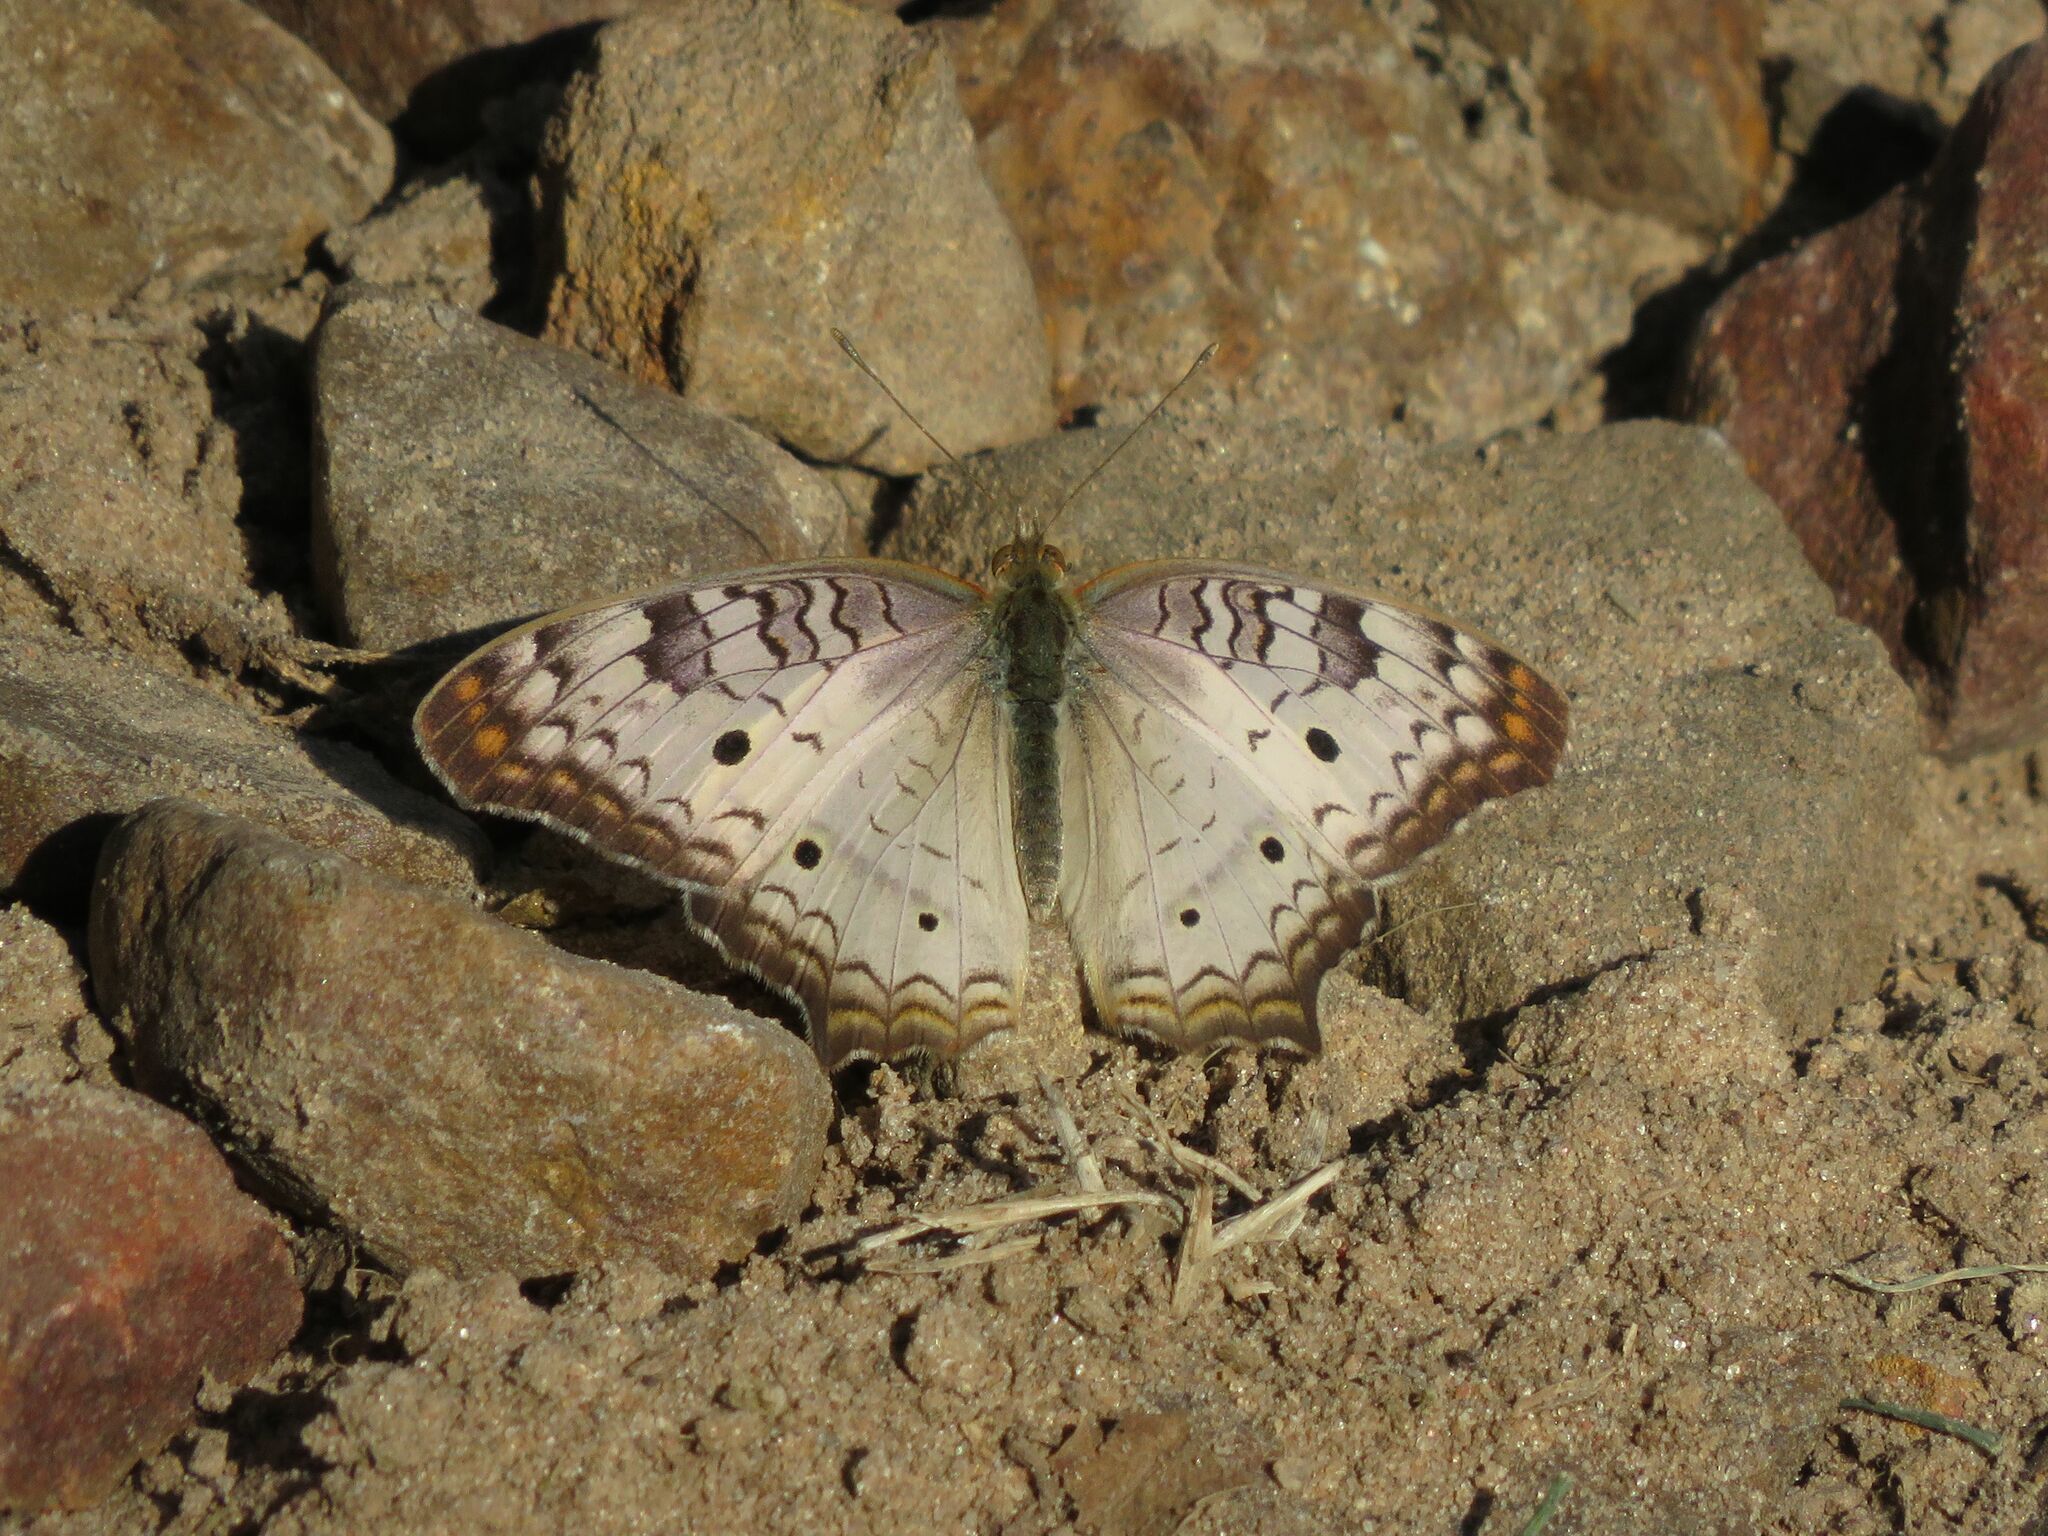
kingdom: Animalia
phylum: Arthropoda
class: Insecta
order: Lepidoptera
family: Nymphalidae
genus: Anartia
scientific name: Anartia jatrophae
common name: White peacock
